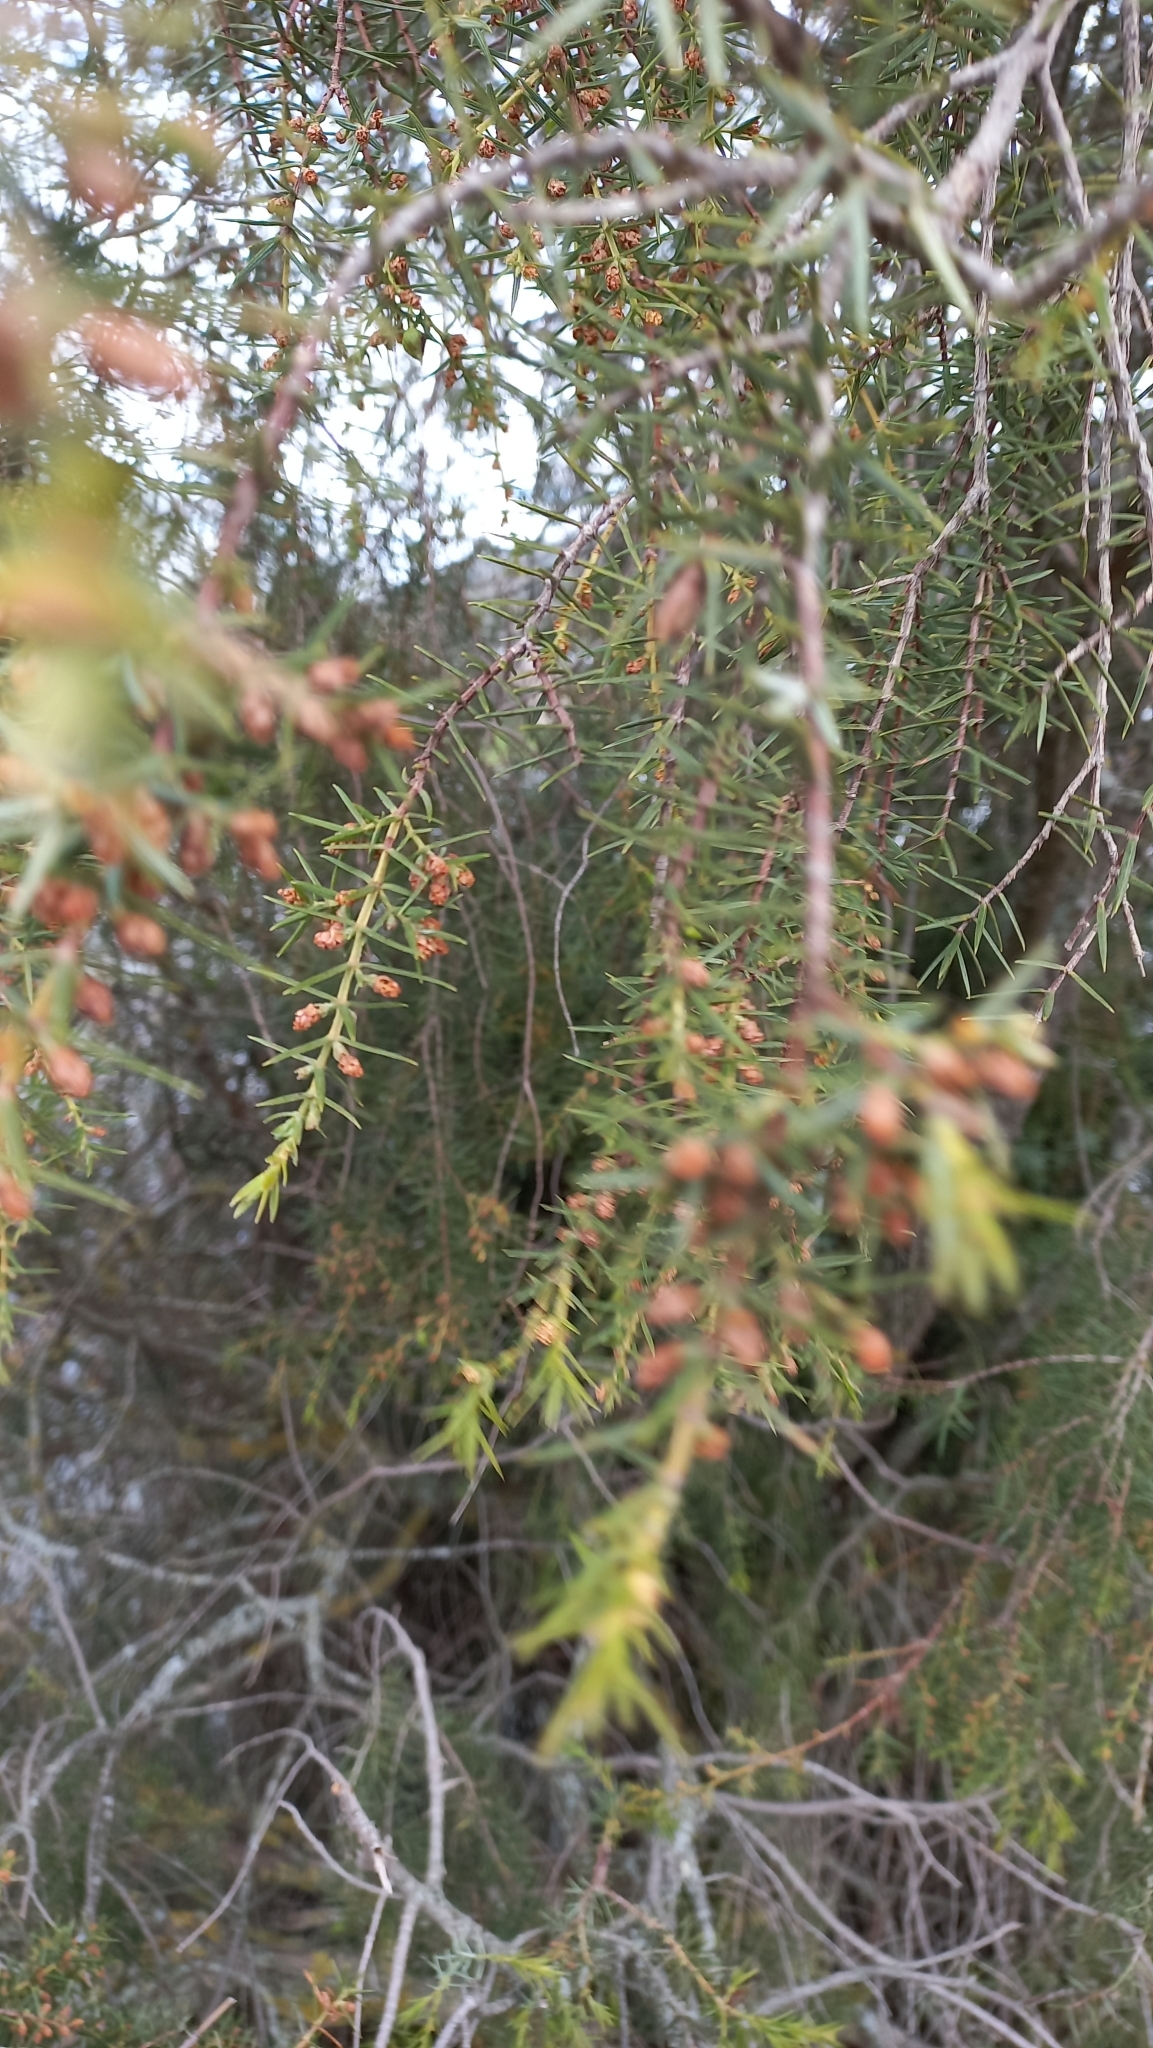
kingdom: Plantae
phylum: Tracheophyta
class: Pinopsida
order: Pinales
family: Cupressaceae
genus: Juniperus
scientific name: Juniperus oxycedrus
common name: Prickly juniper
